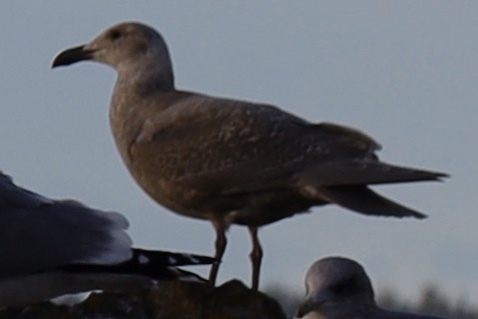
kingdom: Animalia
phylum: Chordata
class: Aves
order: Charadriiformes
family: Laridae
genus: Larus
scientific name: Larus
